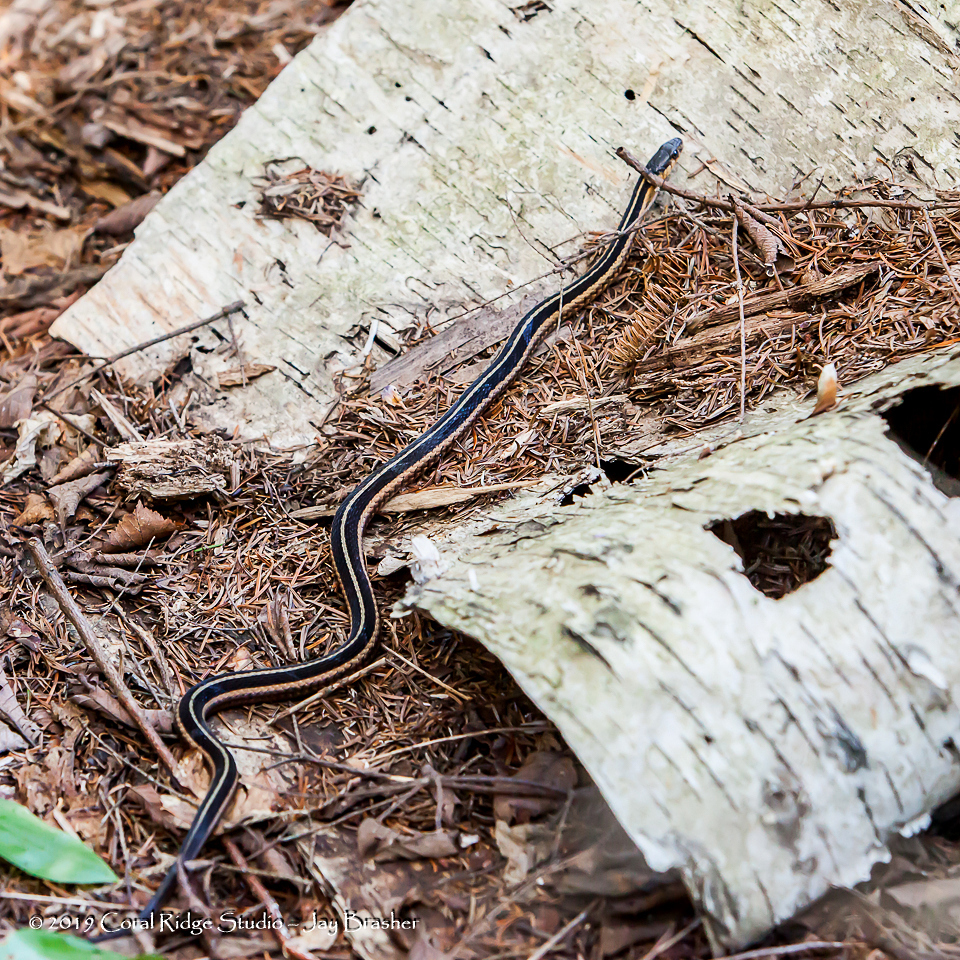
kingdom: Animalia
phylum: Chordata
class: Squamata
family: Colubridae
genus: Thamnophis
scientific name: Thamnophis sirtalis
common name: Common garter snake
